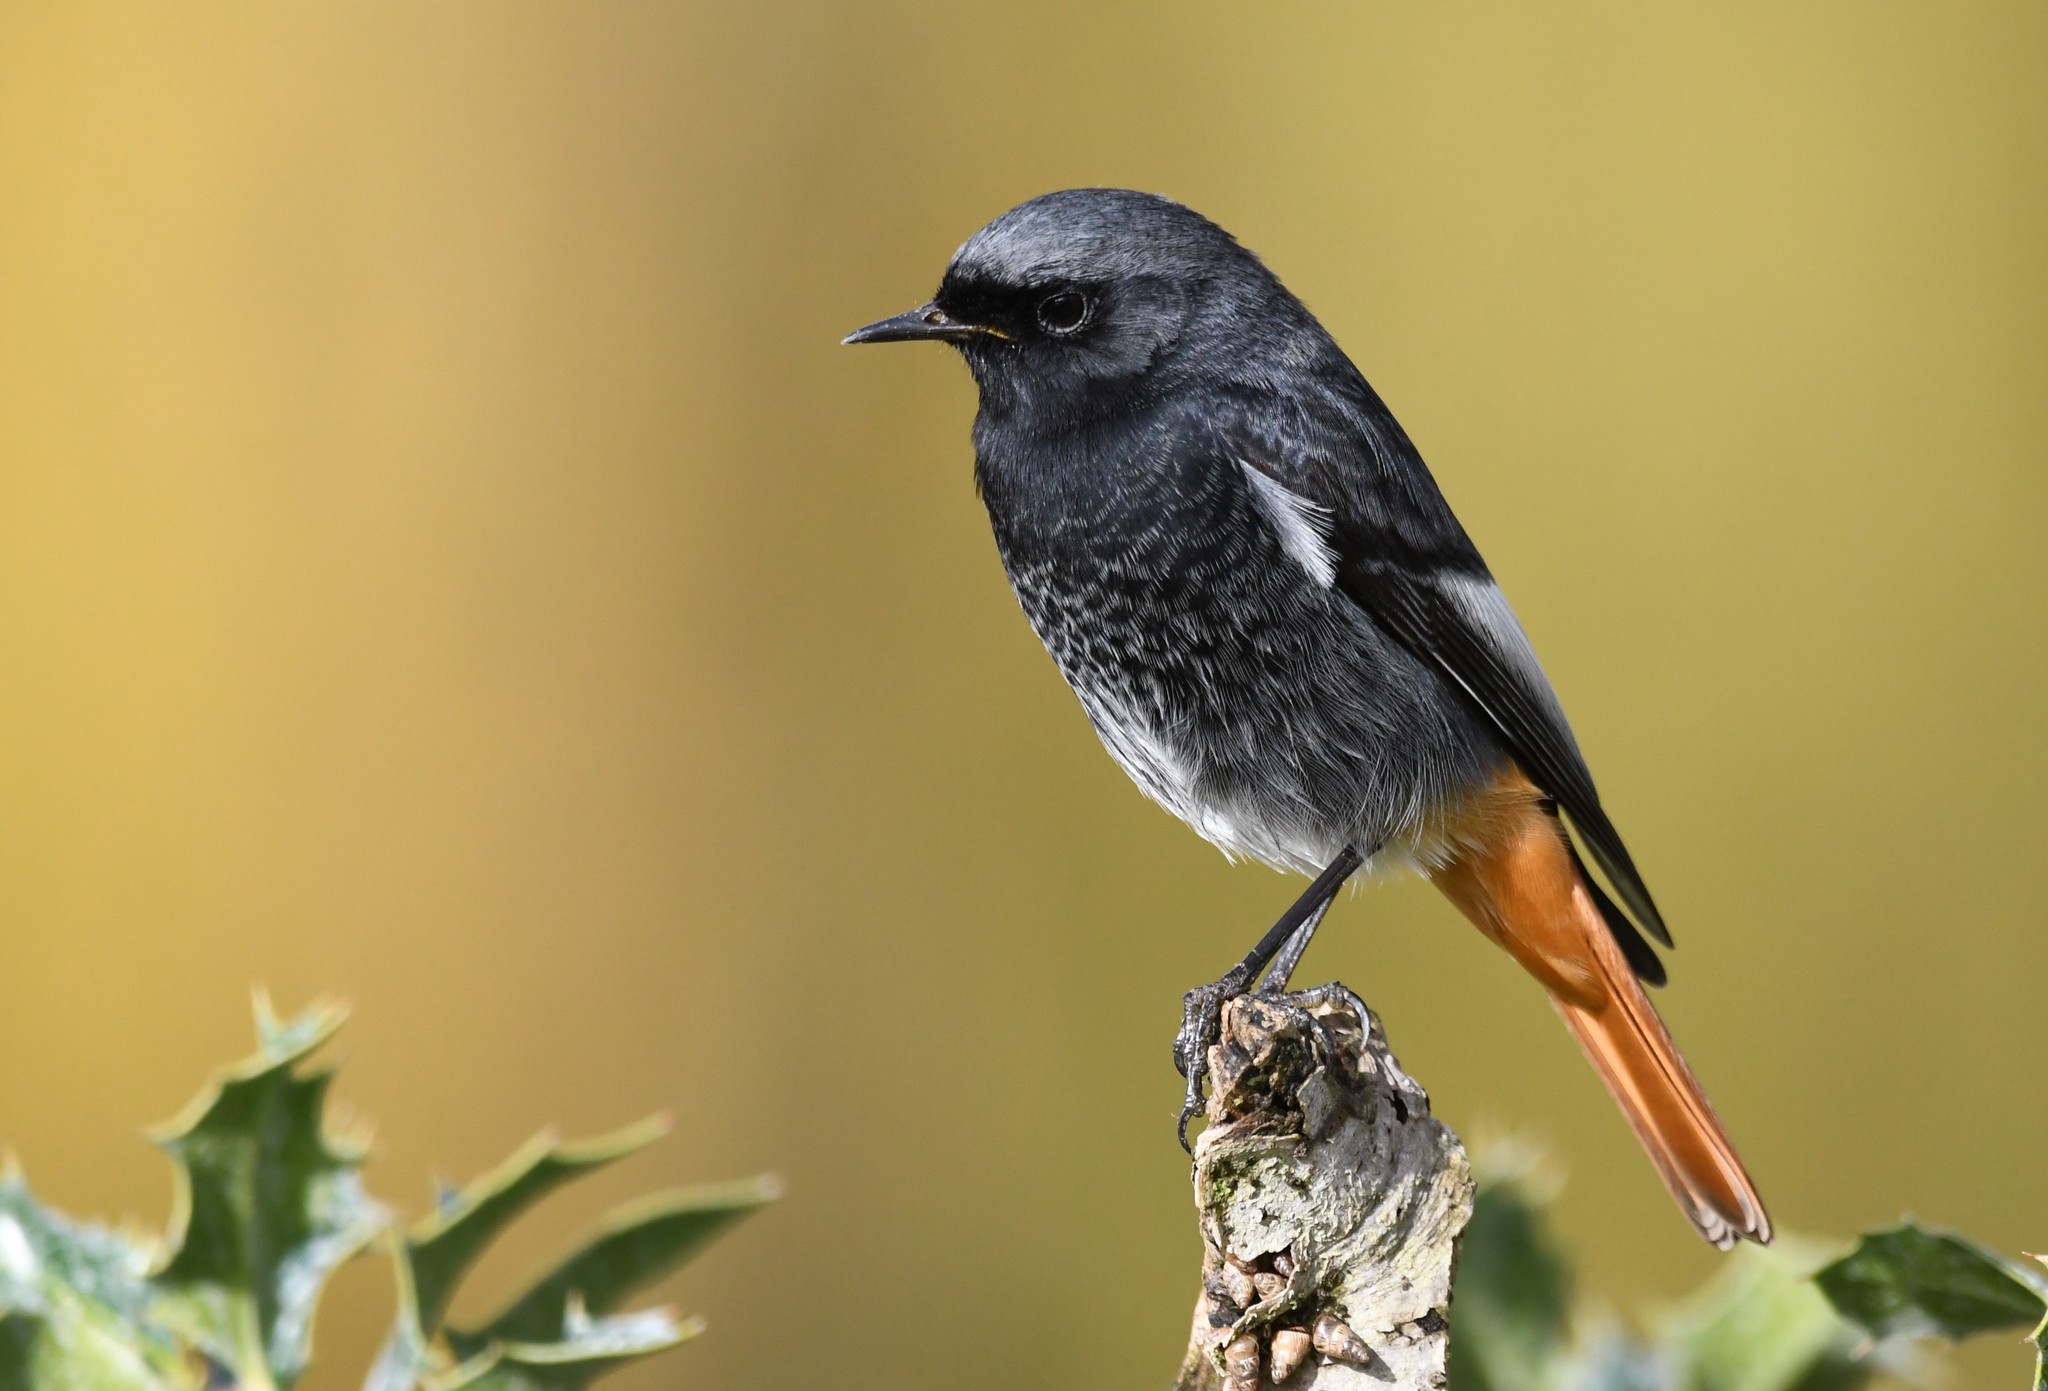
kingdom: Animalia
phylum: Chordata
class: Aves
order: Passeriformes
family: Muscicapidae
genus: Phoenicurus
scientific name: Phoenicurus ochruros
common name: Black redstart
